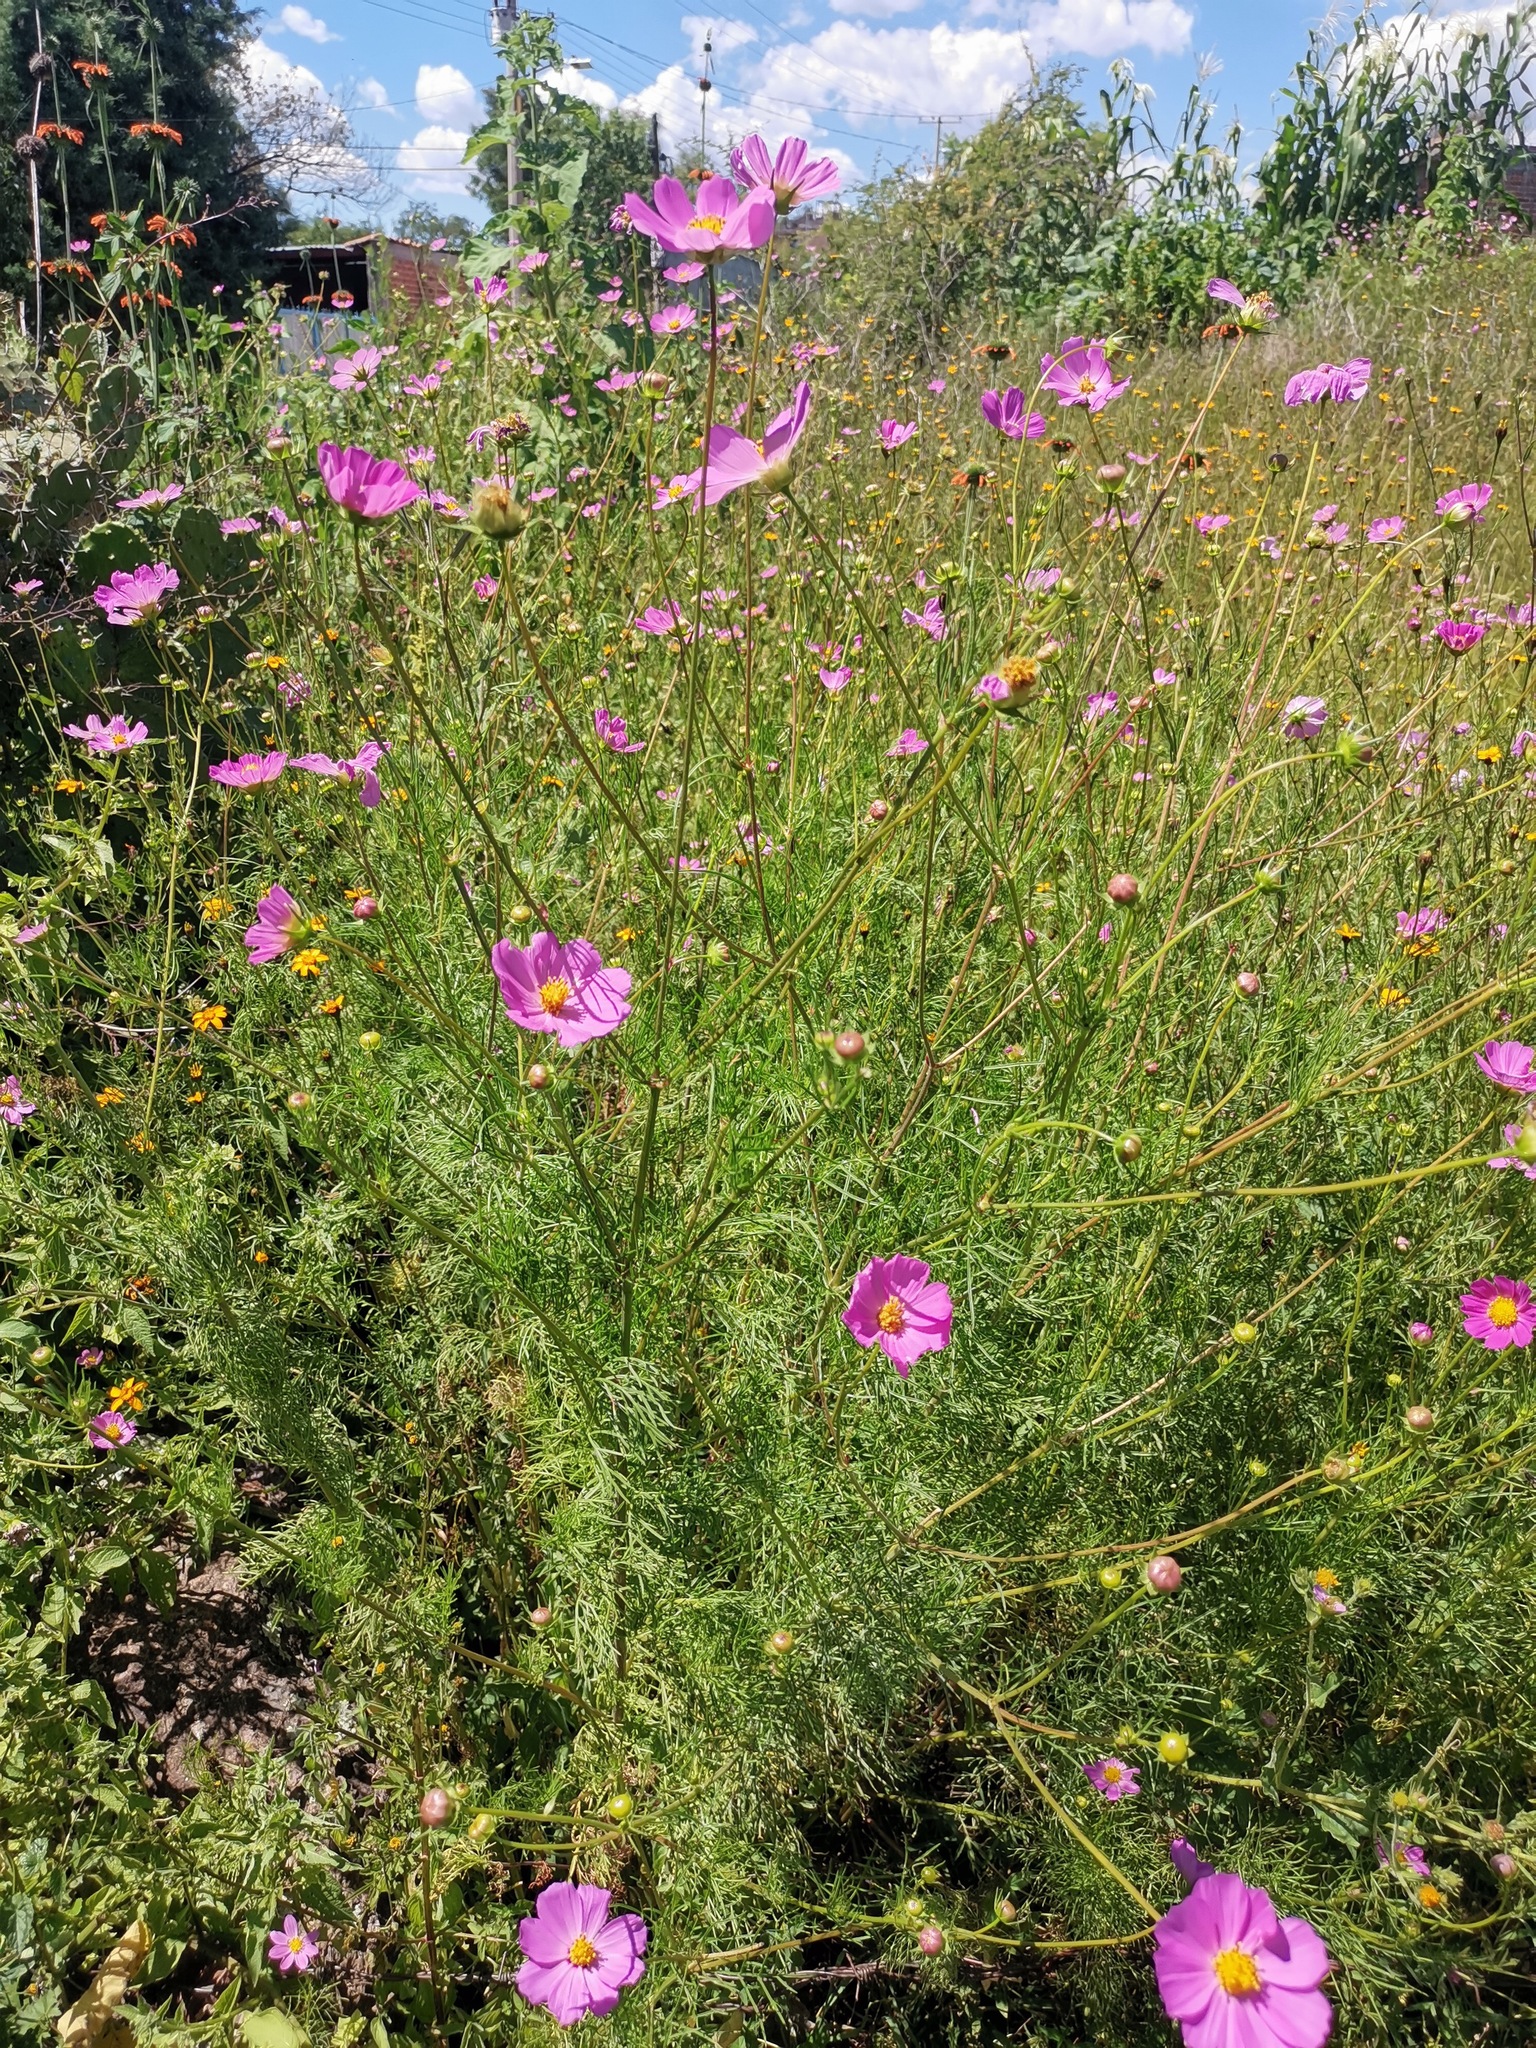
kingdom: Plantae
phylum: Tracheophyta
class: Magnoliopsida
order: Asterales
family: Asteraceae
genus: Cosmos
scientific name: Cosmos bipinnatus
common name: Garden cosmos
